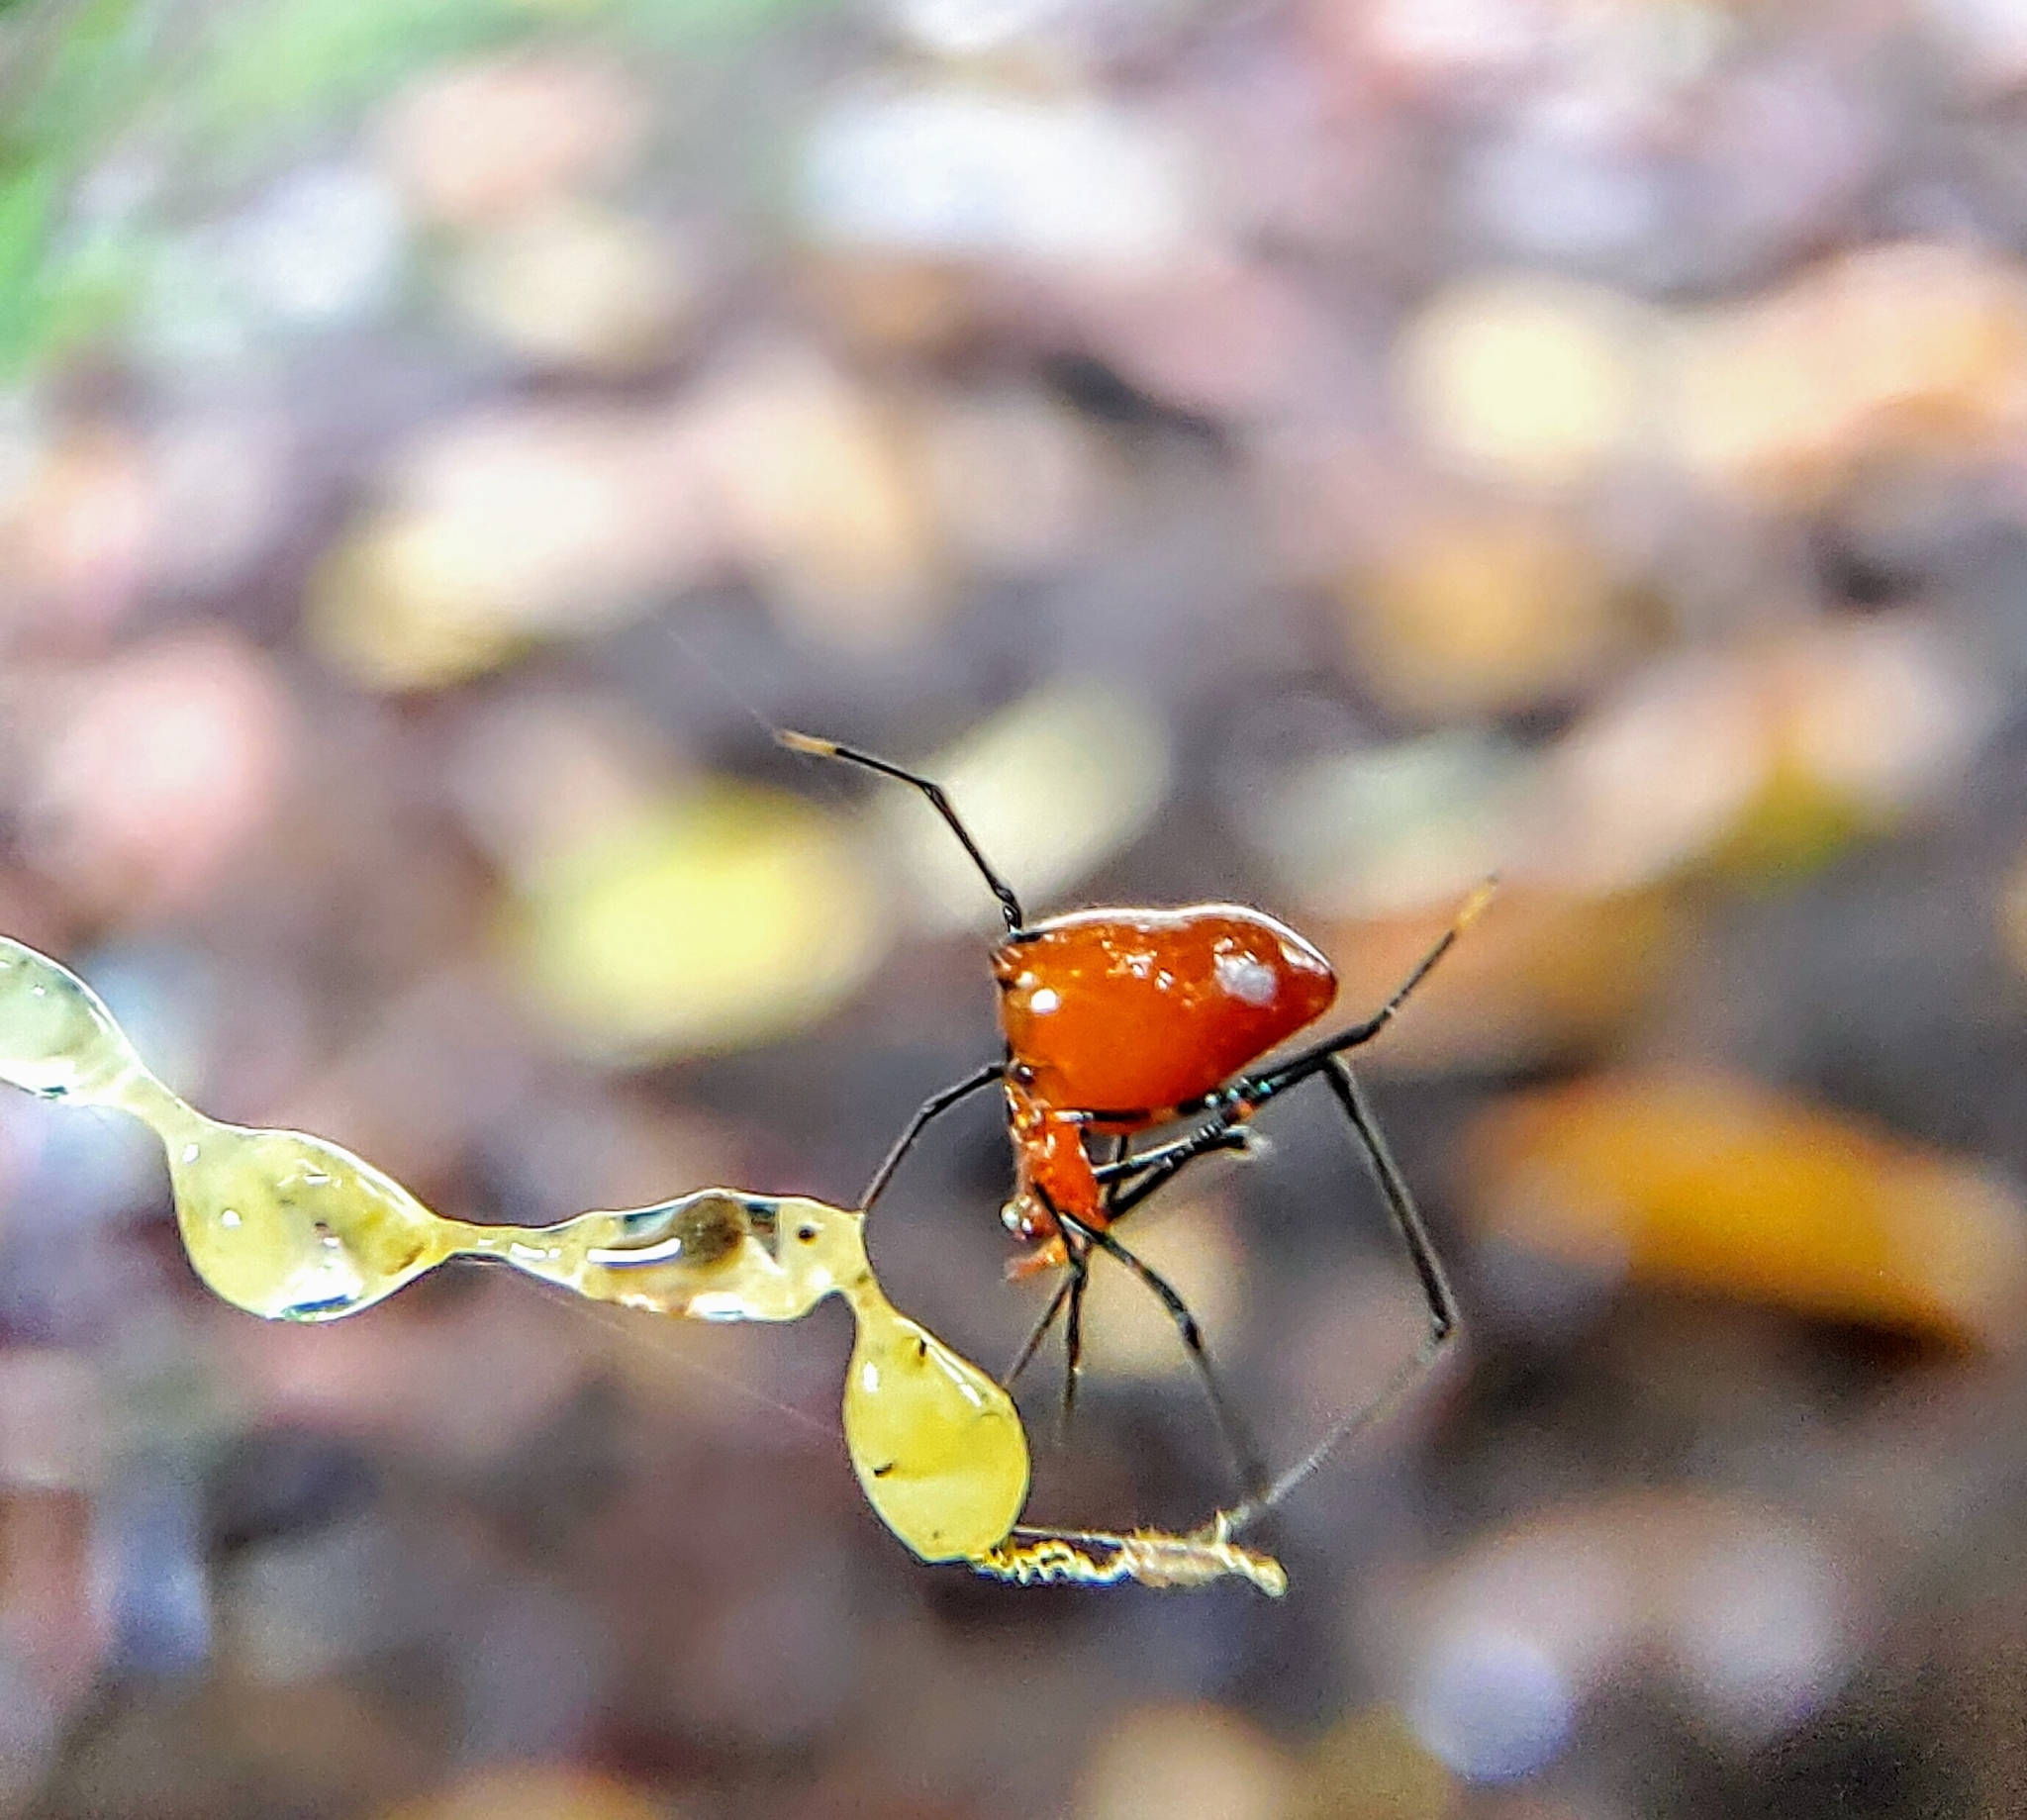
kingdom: Animalia
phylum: Arthropoda
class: Arachnida
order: Araneae
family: Theridiidae
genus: Argyrodes
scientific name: Argyrodes flavescens
